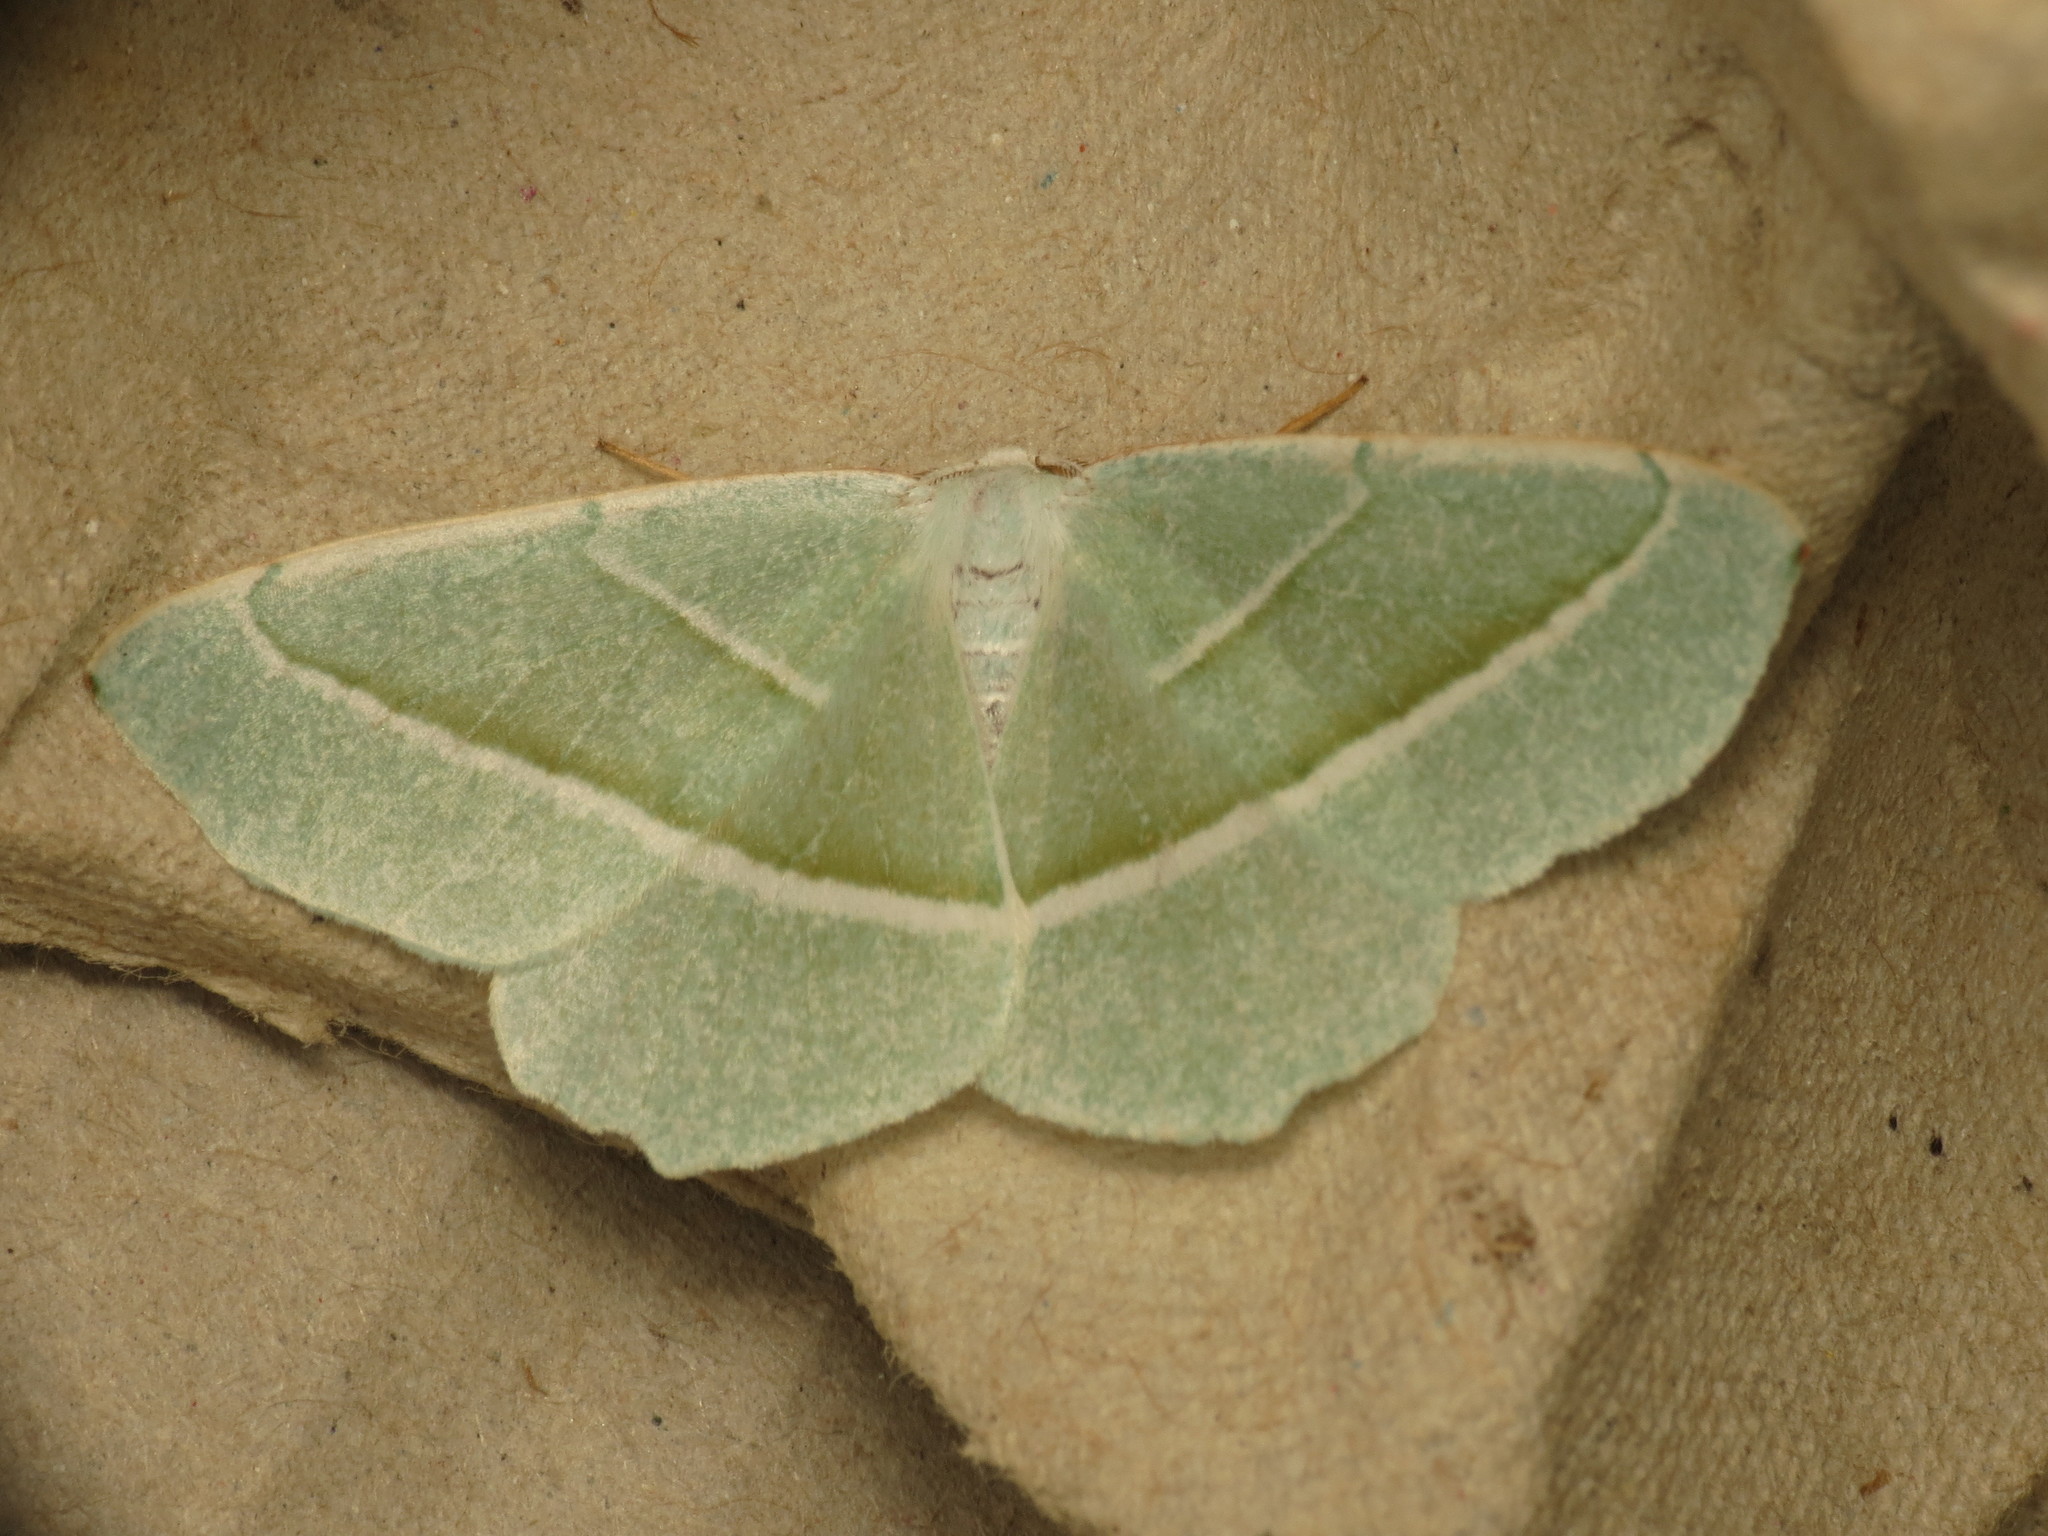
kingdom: Animalia
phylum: Arthropoda
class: Insecta
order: Lepidoptera
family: Geometridae
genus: Campaea
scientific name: Campaea margaritaria
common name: Light emerald
